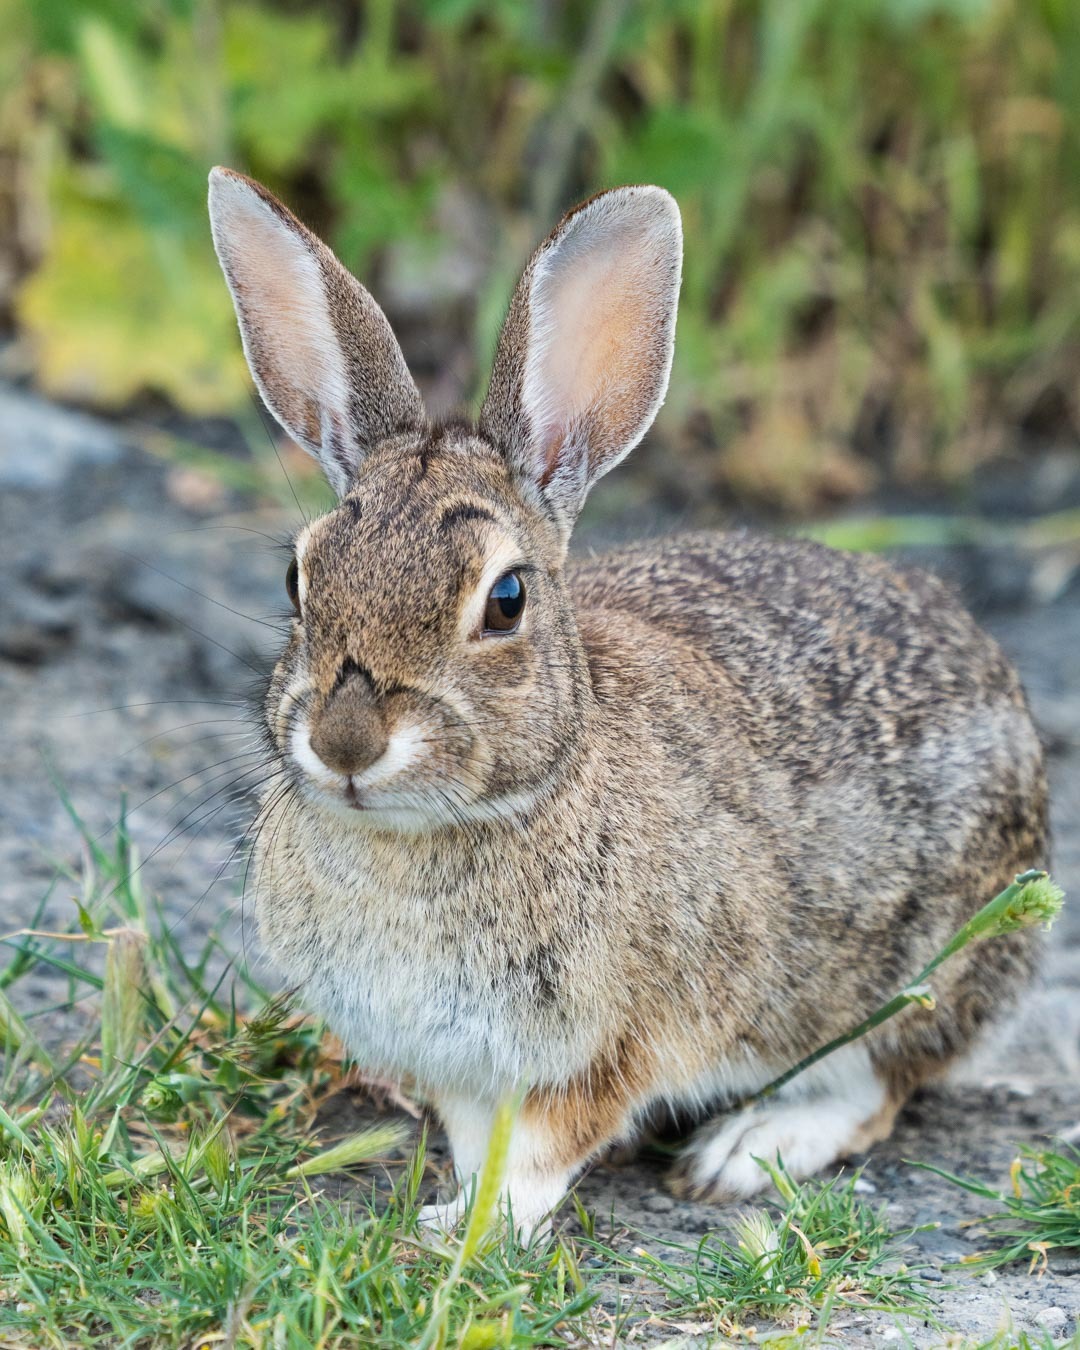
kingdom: Animalia
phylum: Chordata
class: Mammalia
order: Lagomorpha
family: Leporidae
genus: Sylvilagus
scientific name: Sylvilagus bachmani
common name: Brush rabbit
